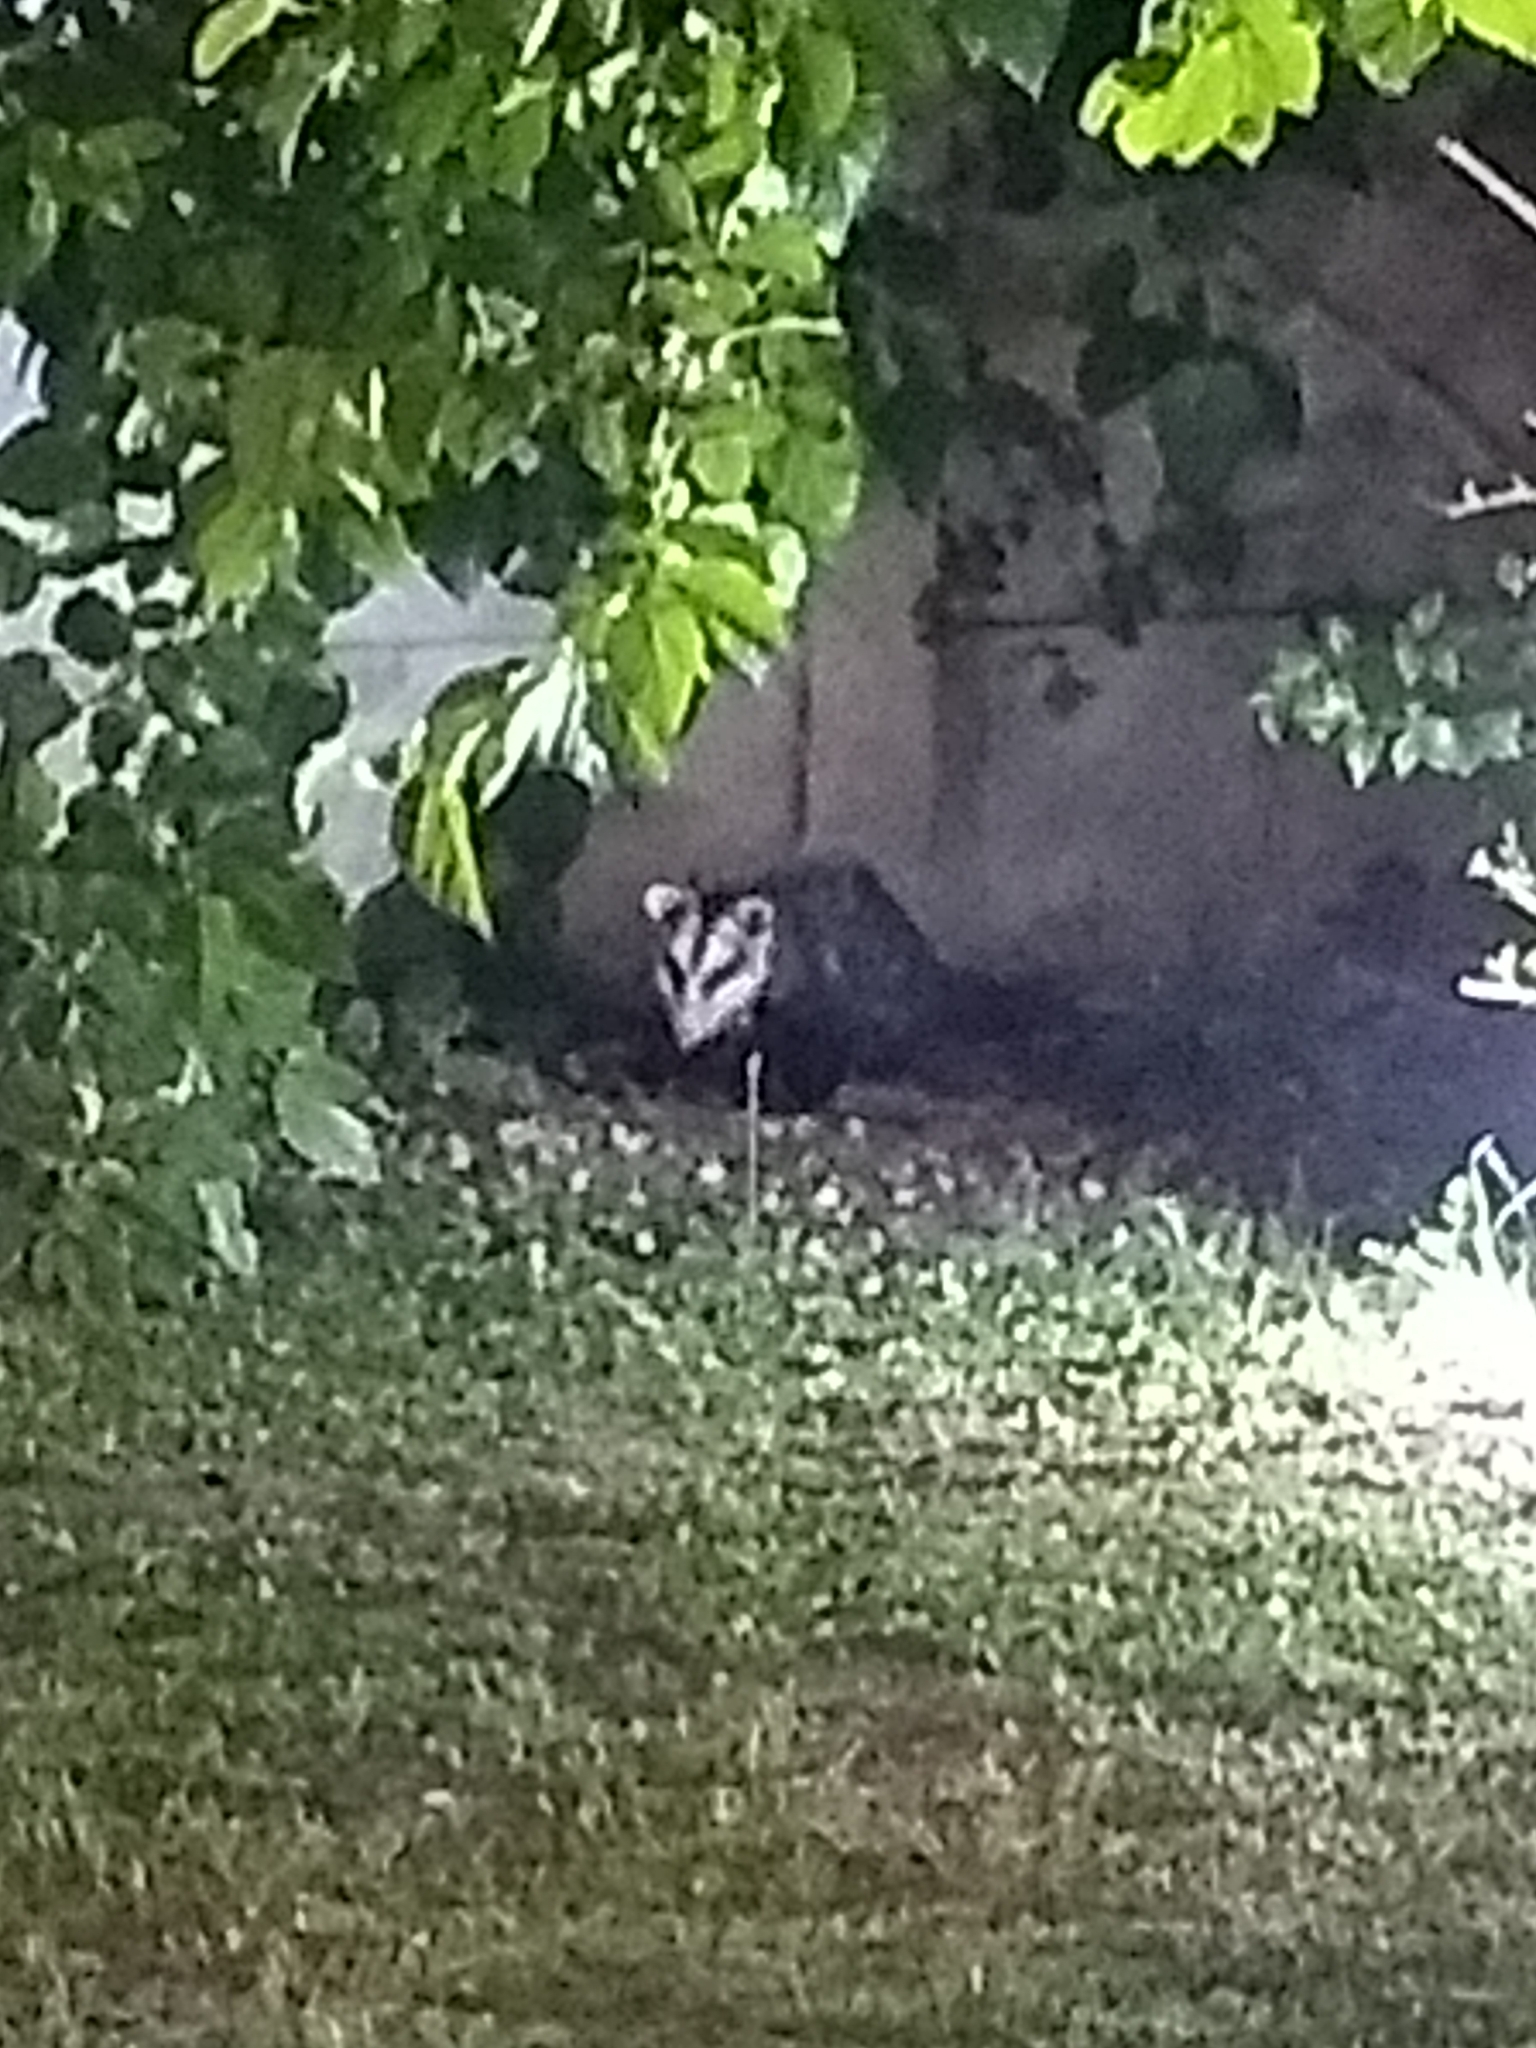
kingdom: Animalia
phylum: Chordata
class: Mammalia
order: Didelphimorphia
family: Didelphidae
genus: Didelphis
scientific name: Didelphis albiventris
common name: White-eared opossum
